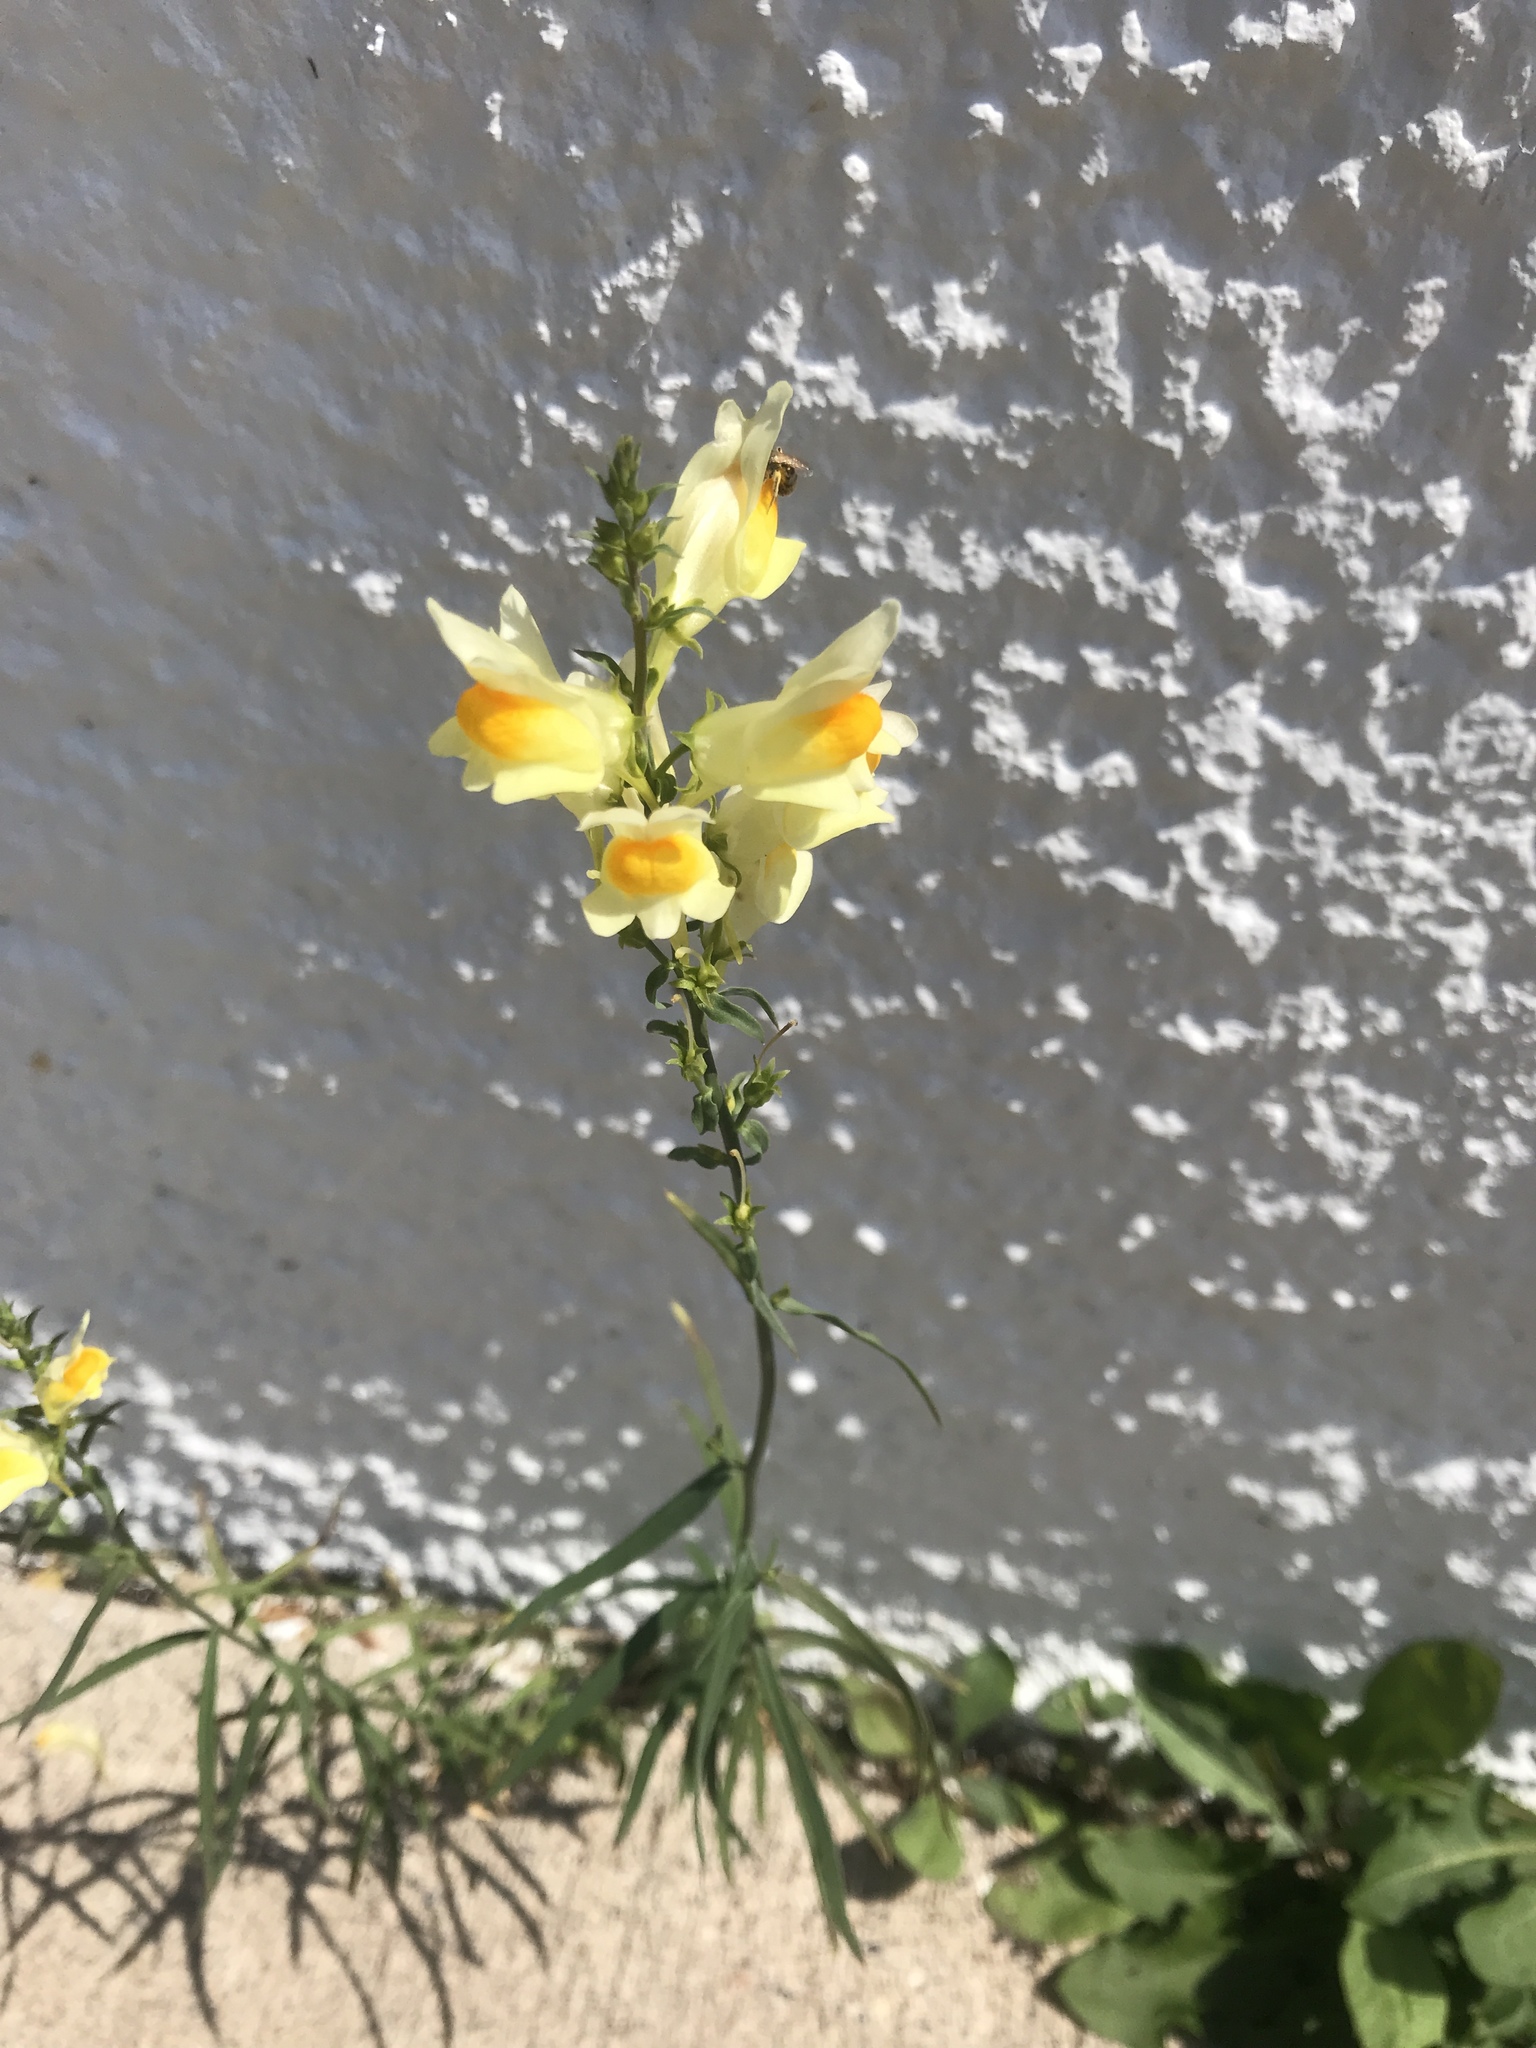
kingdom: Plantae
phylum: Tracheophyta
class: Magnoliopsida
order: Lamiales
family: Plantaginaceae
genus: Linaria
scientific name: Linaria vulgaris
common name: Butter and eggs
